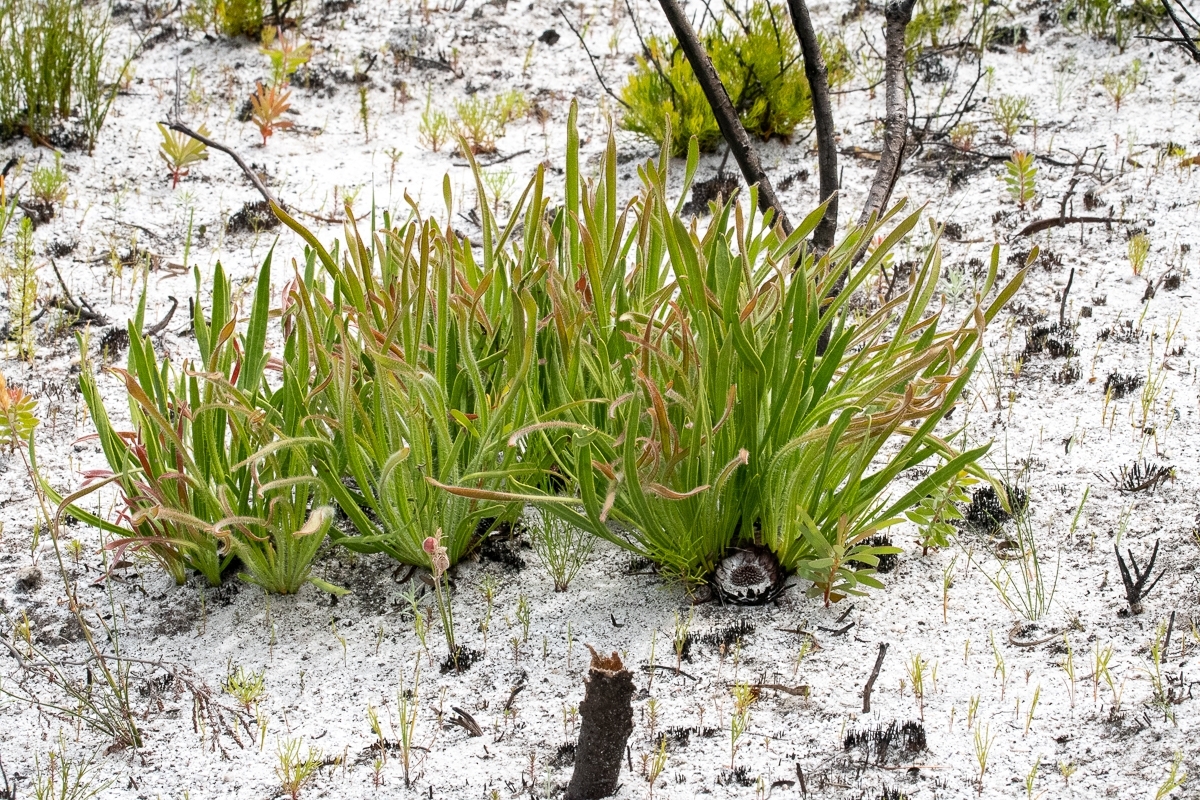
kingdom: Plantae
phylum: Tracheophyta
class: Magnoliopsida
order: Proteales
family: Proteaceae
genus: Protea
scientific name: Protea scabra
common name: Sandpaper-leaf sugarbush
